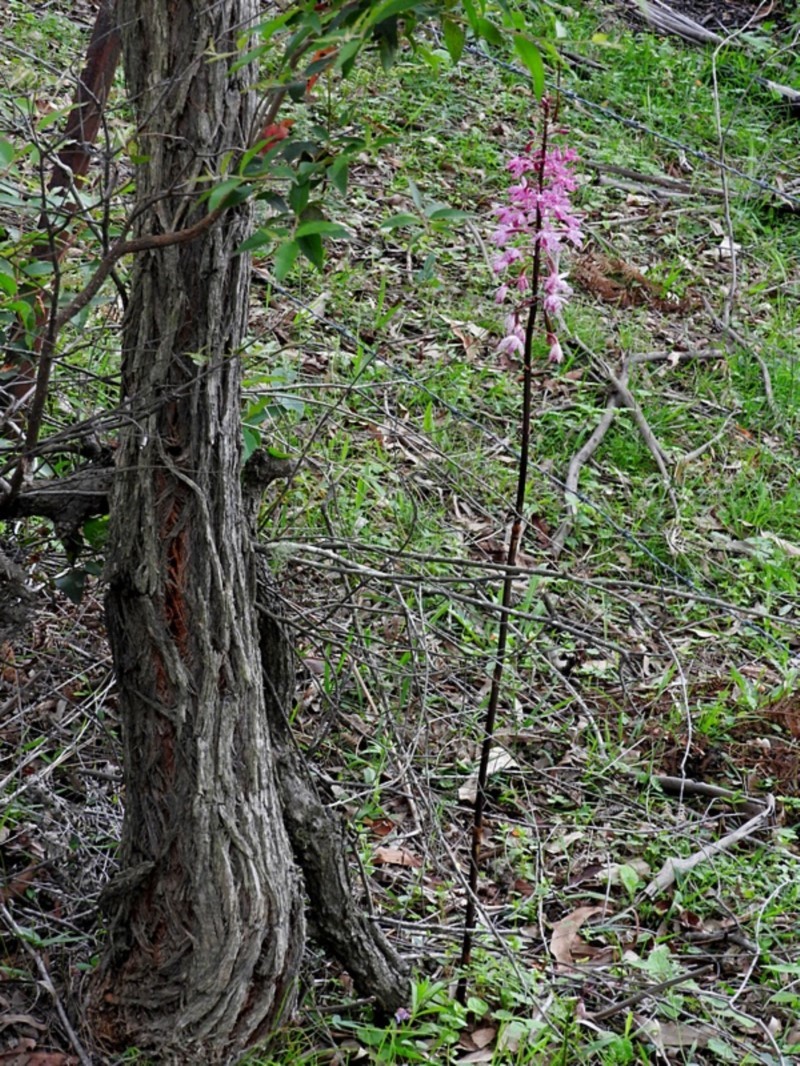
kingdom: Plantae
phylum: Tracheophyta
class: Liliopsida
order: Asparagales
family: Orchidaceae
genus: Dipodium
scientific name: Dipodium squamatum
